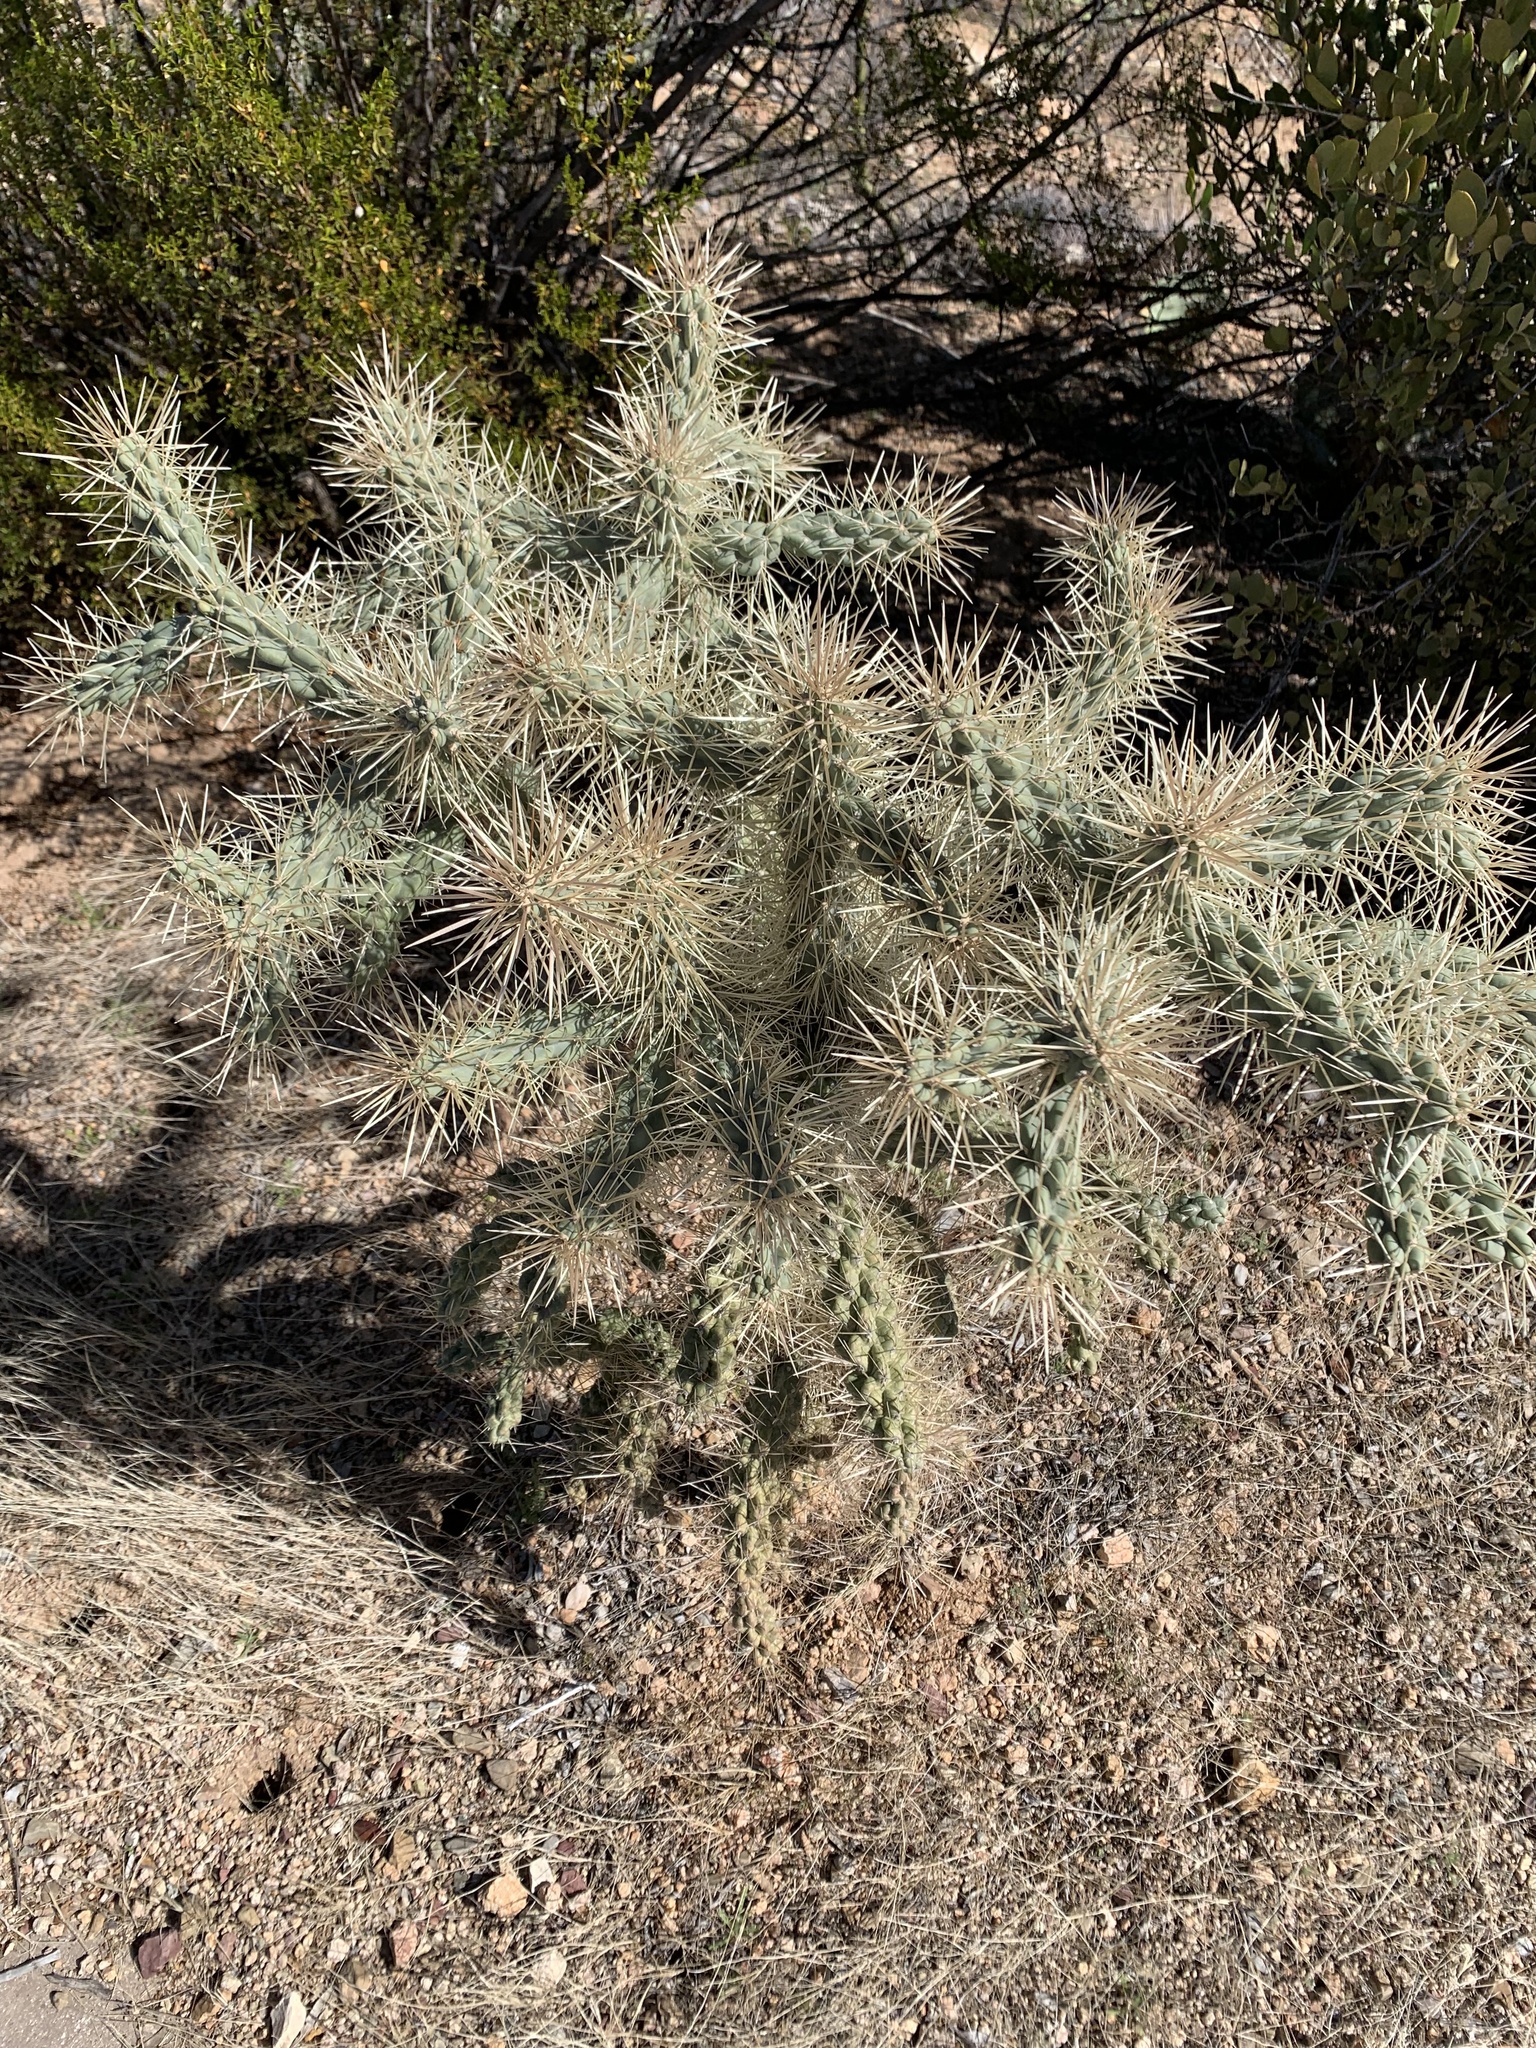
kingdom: Plantae
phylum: Tracheophyta
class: Magnoliopsida
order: Caryophyllales
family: Cactaceae
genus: Cylindropuntia
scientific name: Cylindropuntia fulgida
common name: Jumping cholla
